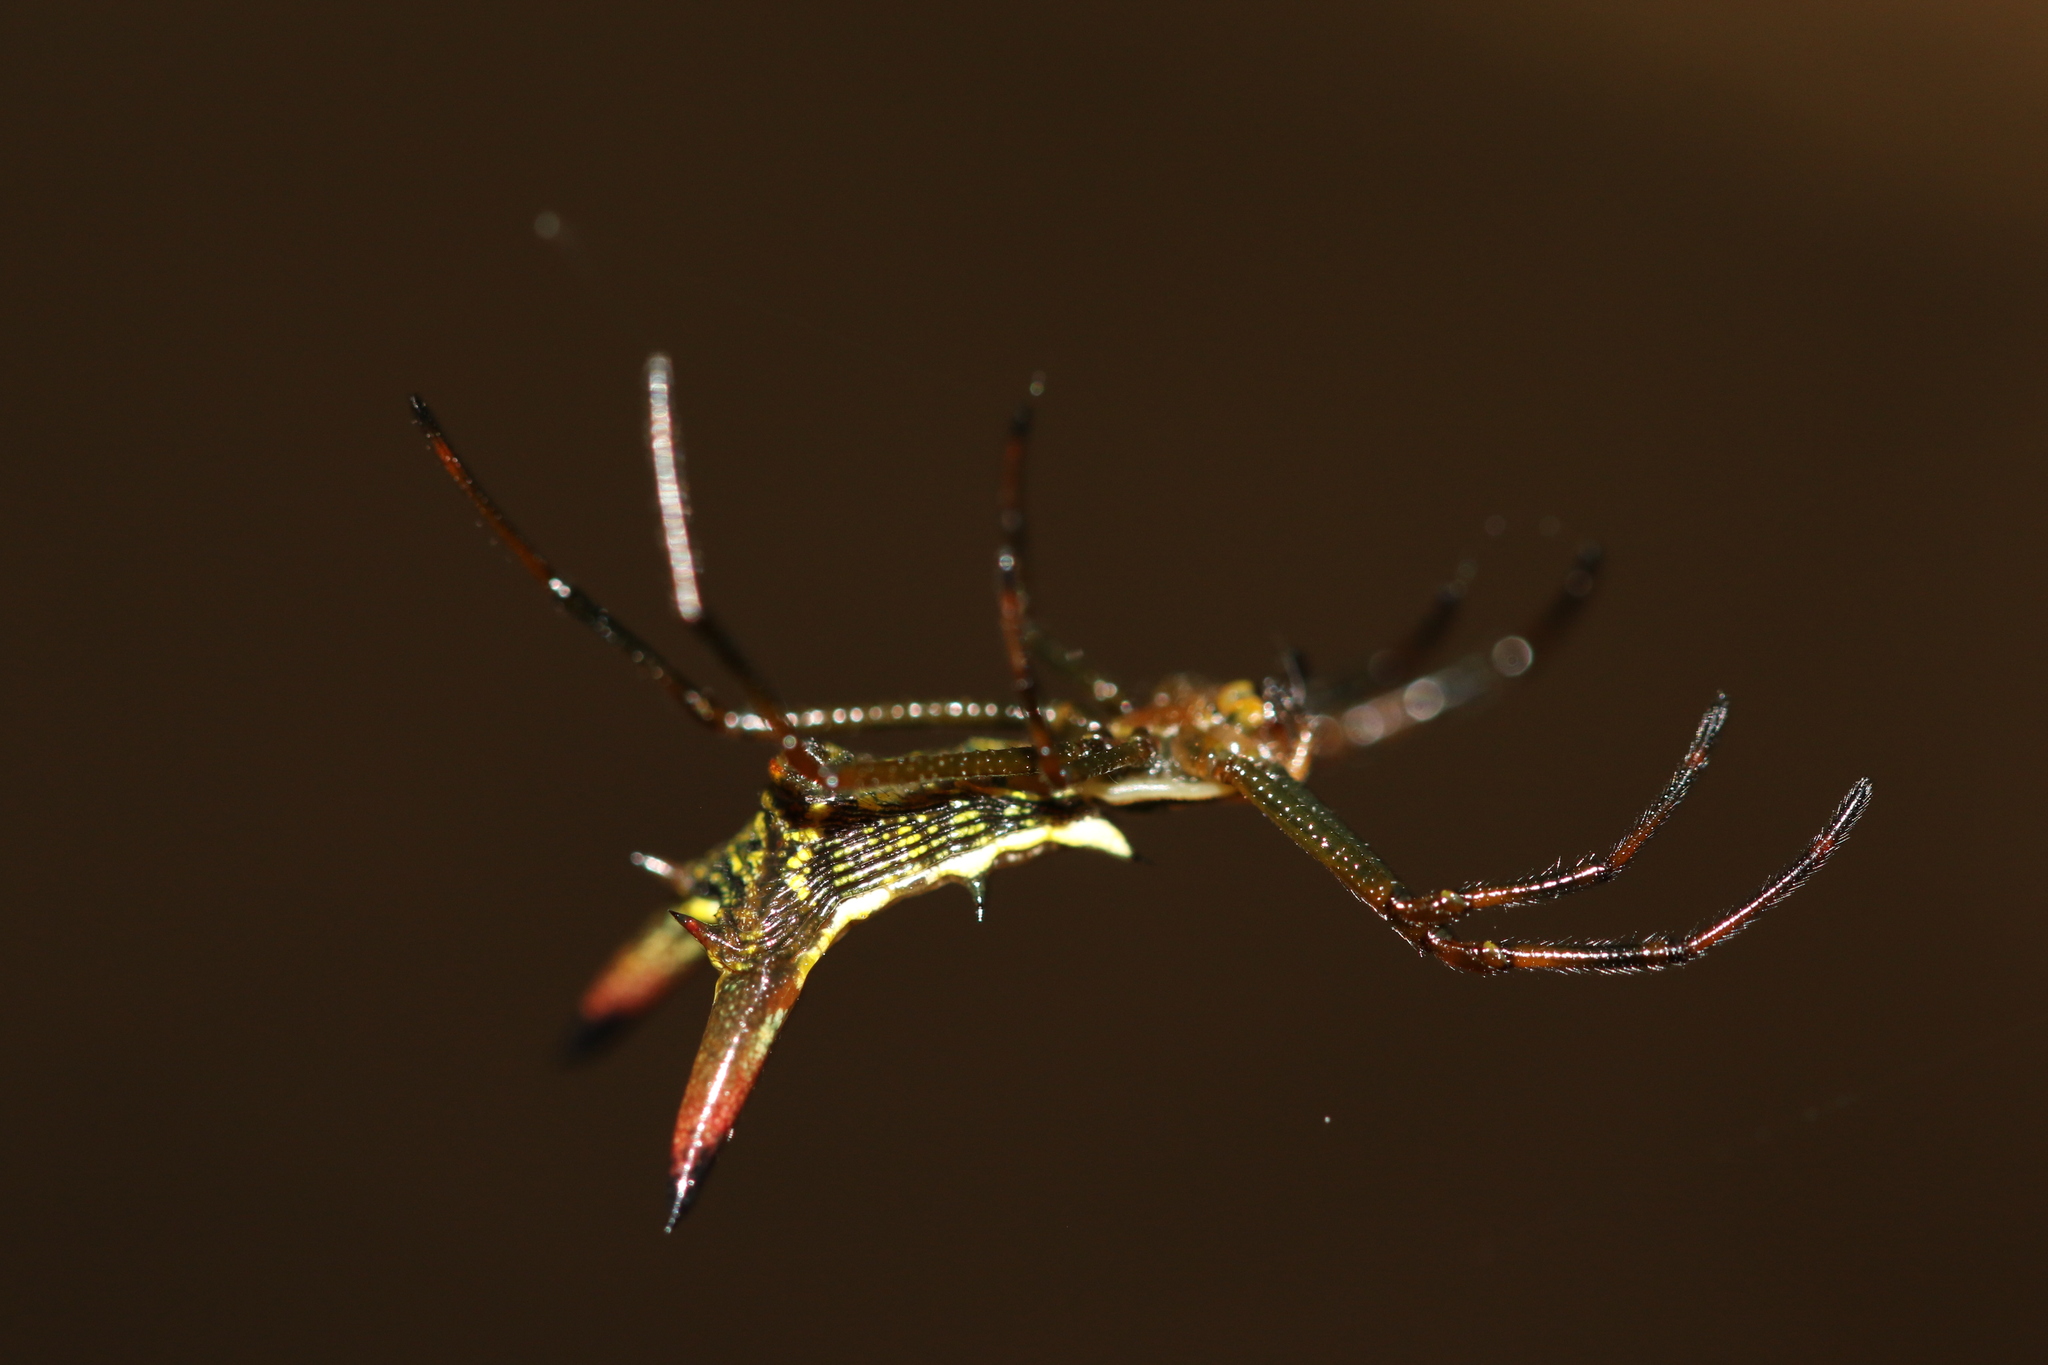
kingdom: Animalia
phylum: Arthropoda
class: Arachnida
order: Araneae
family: Araneidae
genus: Micrathena
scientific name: Micrathena crassispina
